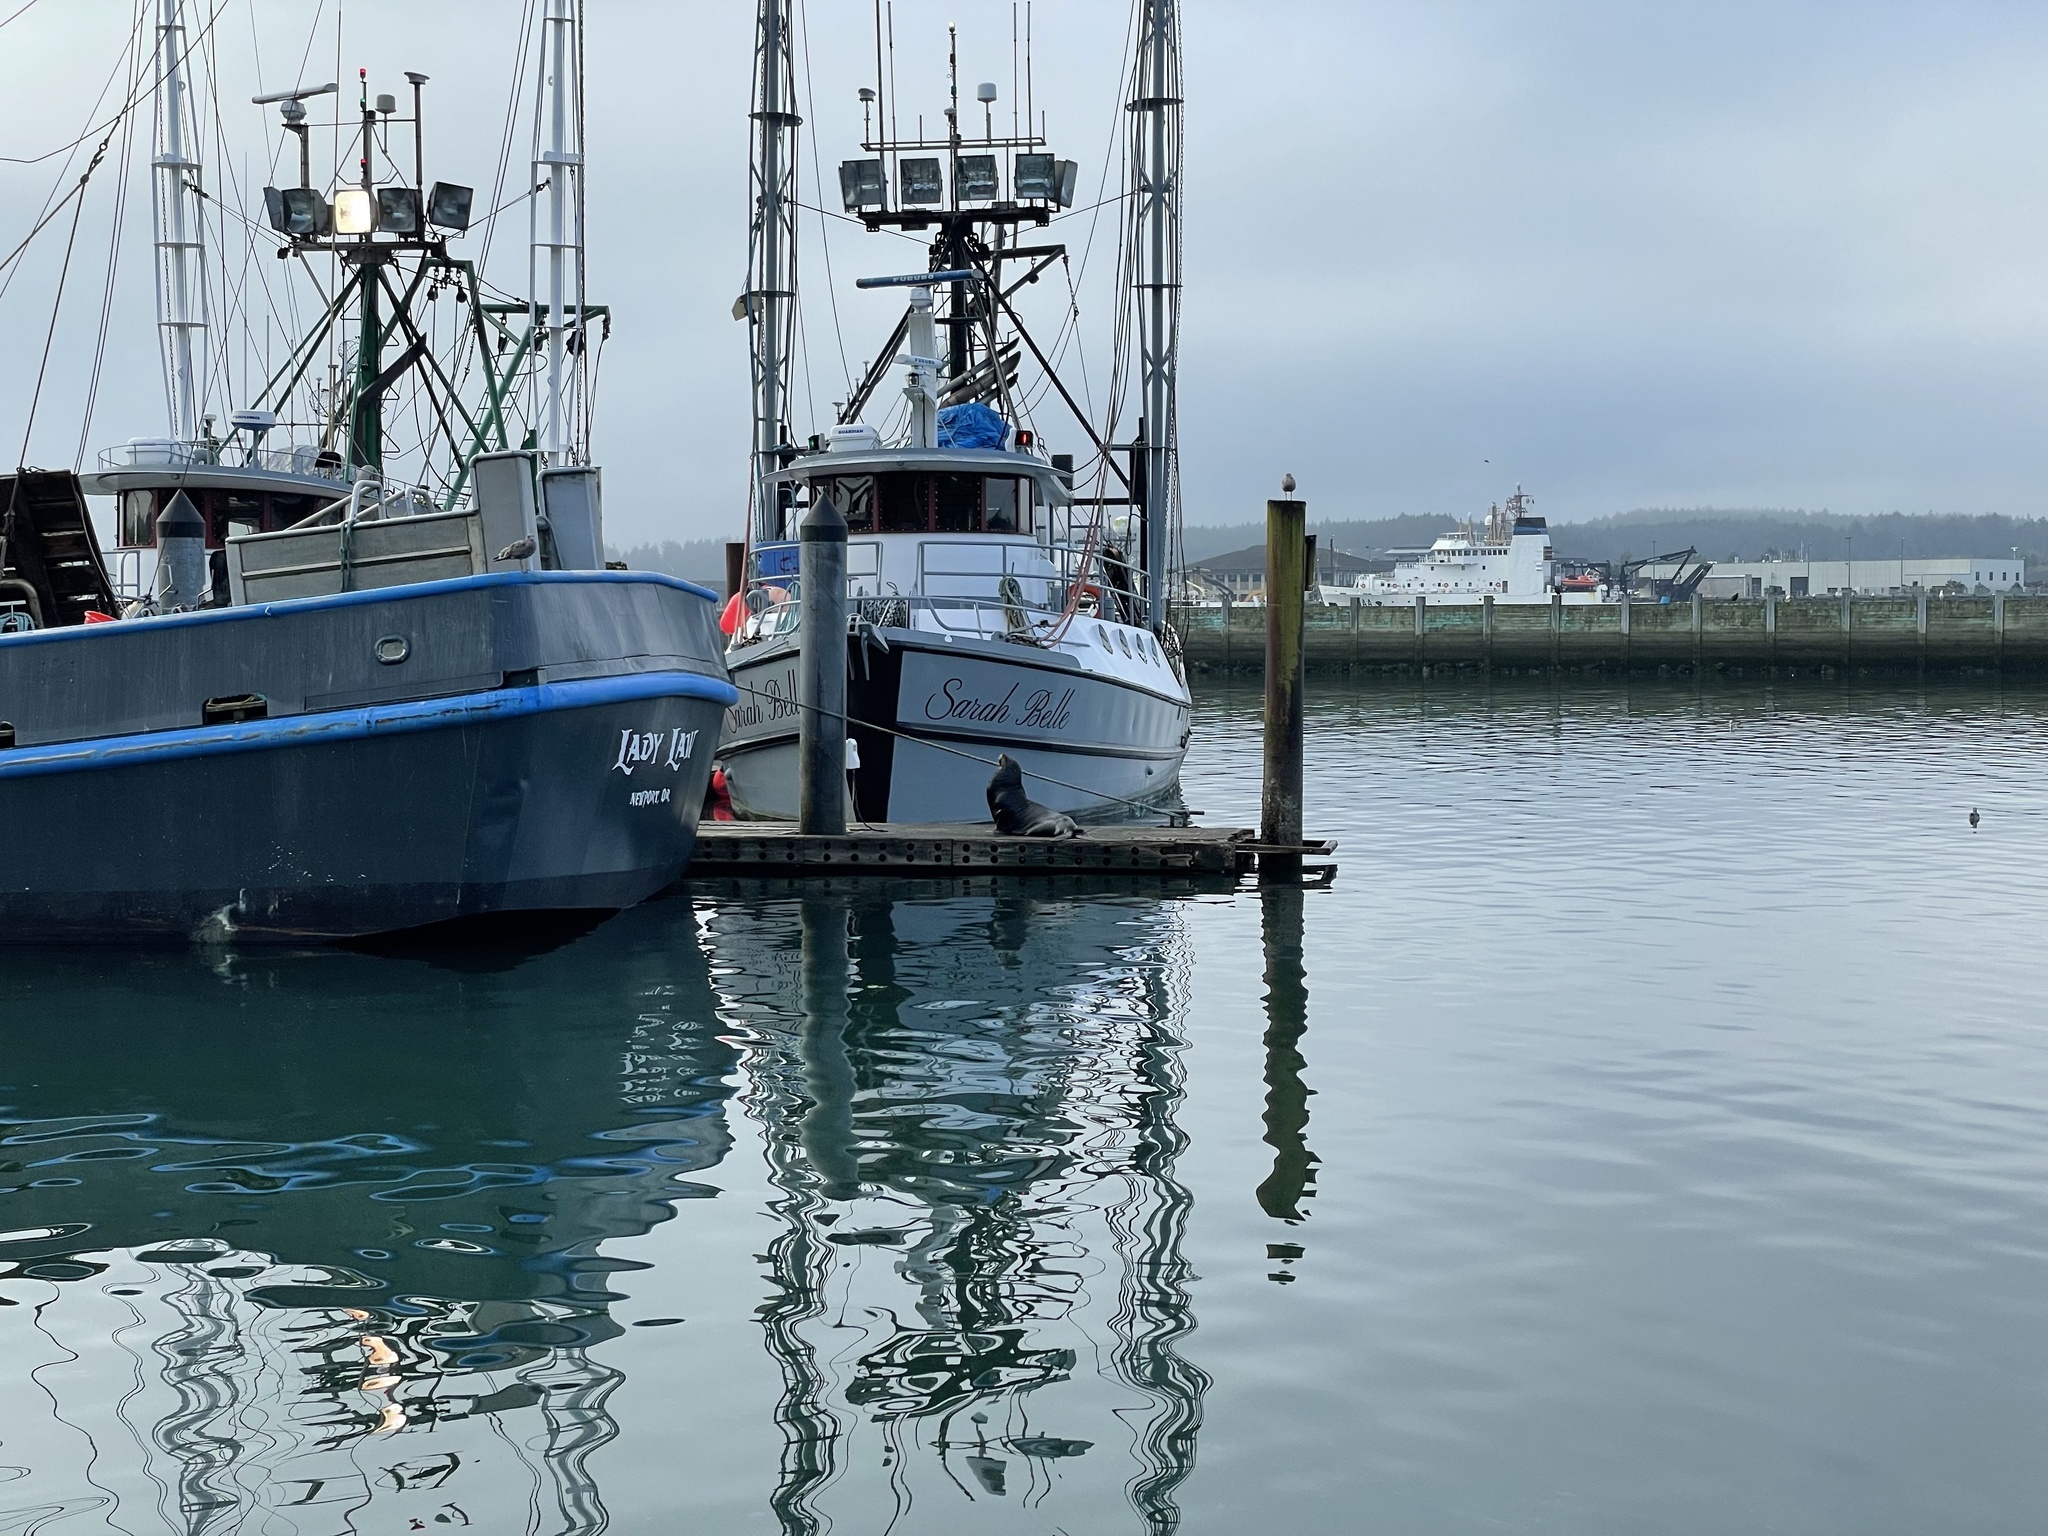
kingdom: Animalia
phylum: Chordata
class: Mammalia
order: Carnivora
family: Otariidae
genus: Zalophus
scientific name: Zalophus californianus
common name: California sea lion
